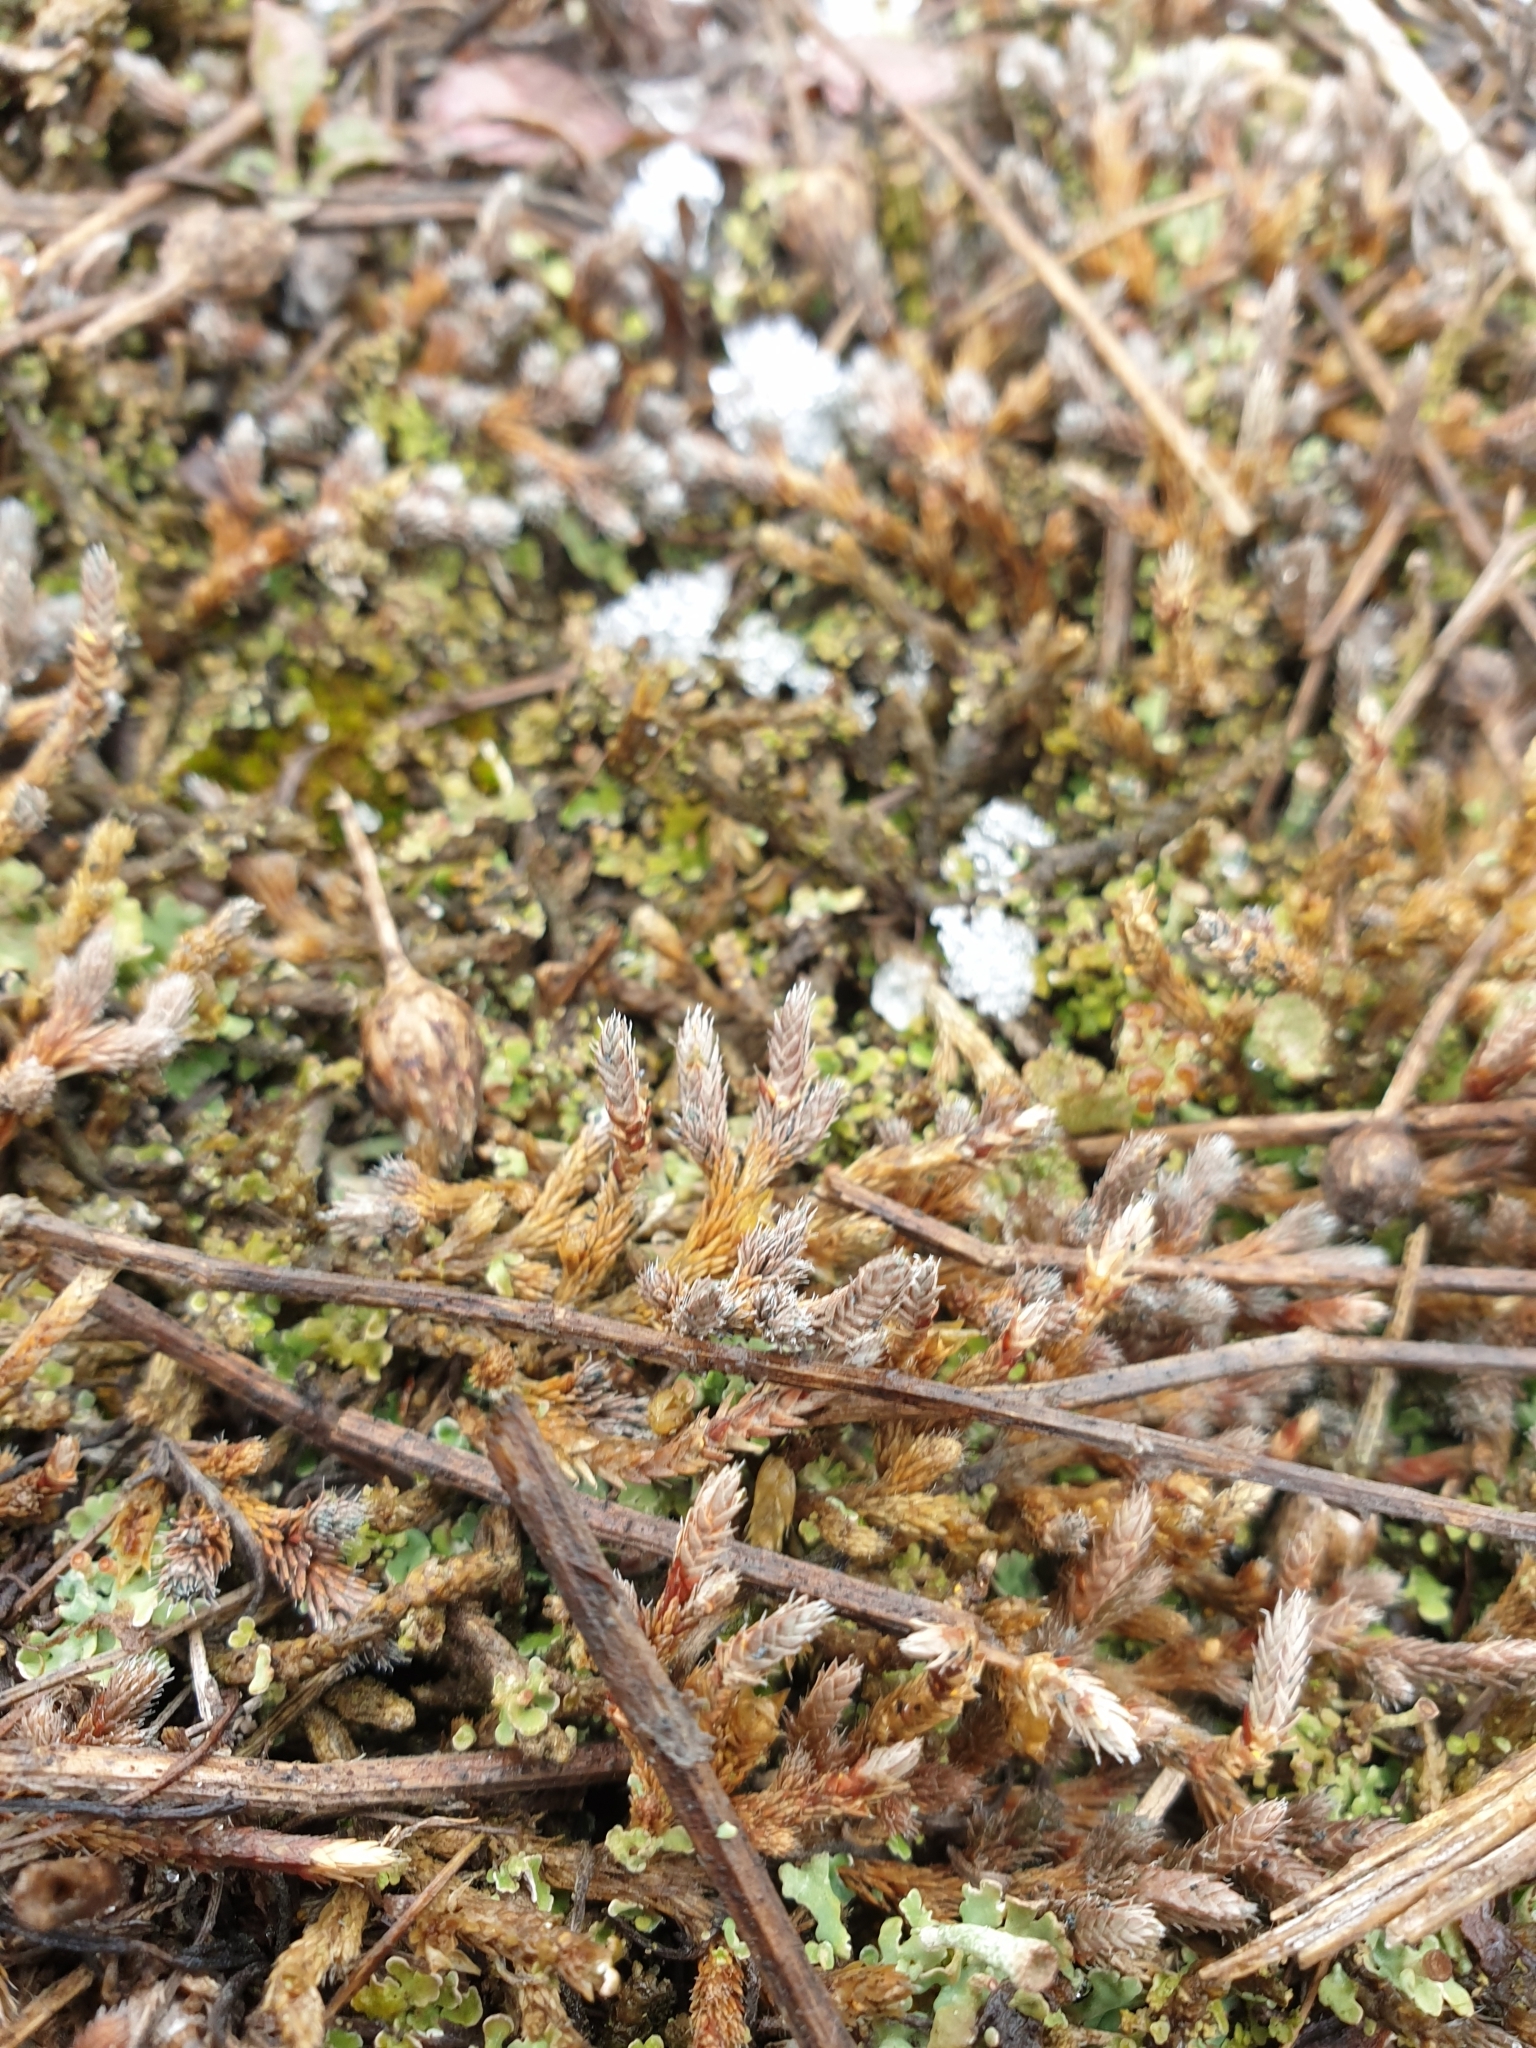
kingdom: Plantae
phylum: Tracheophyta
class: Lycopodiopsida
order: Selaginellales
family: Selaginellaceae
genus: Selaginella
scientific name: Selaginella rupestris
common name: Dwarf spikemoss
